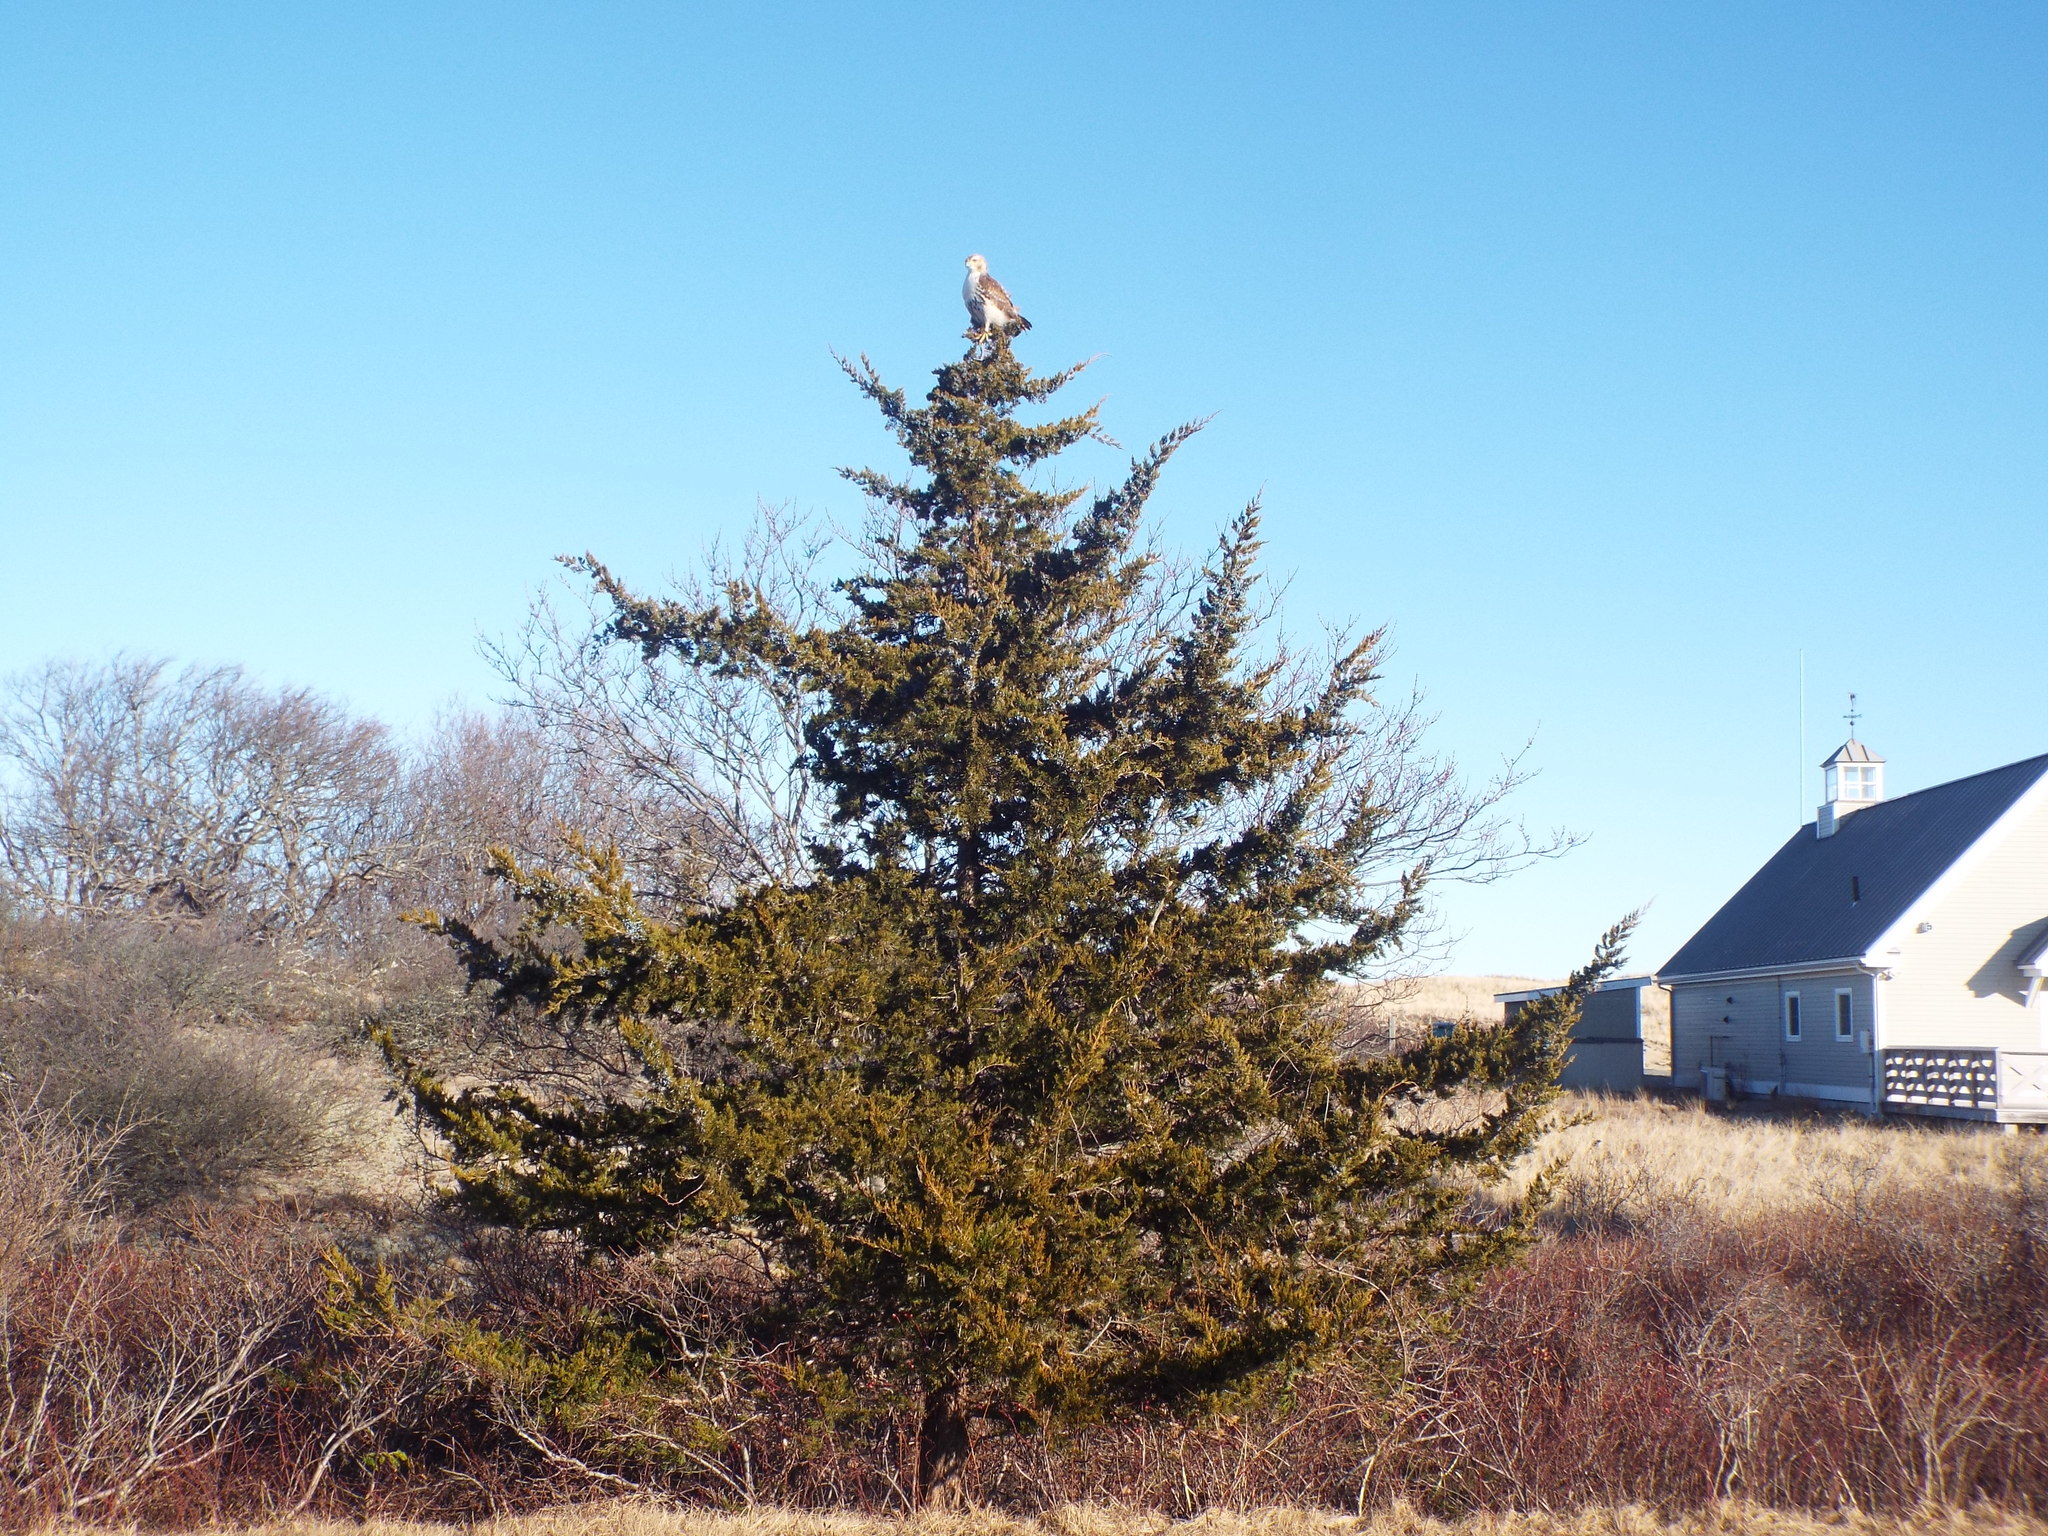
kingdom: Plantae
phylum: Tracheophyta
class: Pinopsida
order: Pinales
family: Cupressaceae
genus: Juniperus
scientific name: Juniperus virginiana
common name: Red juniper
